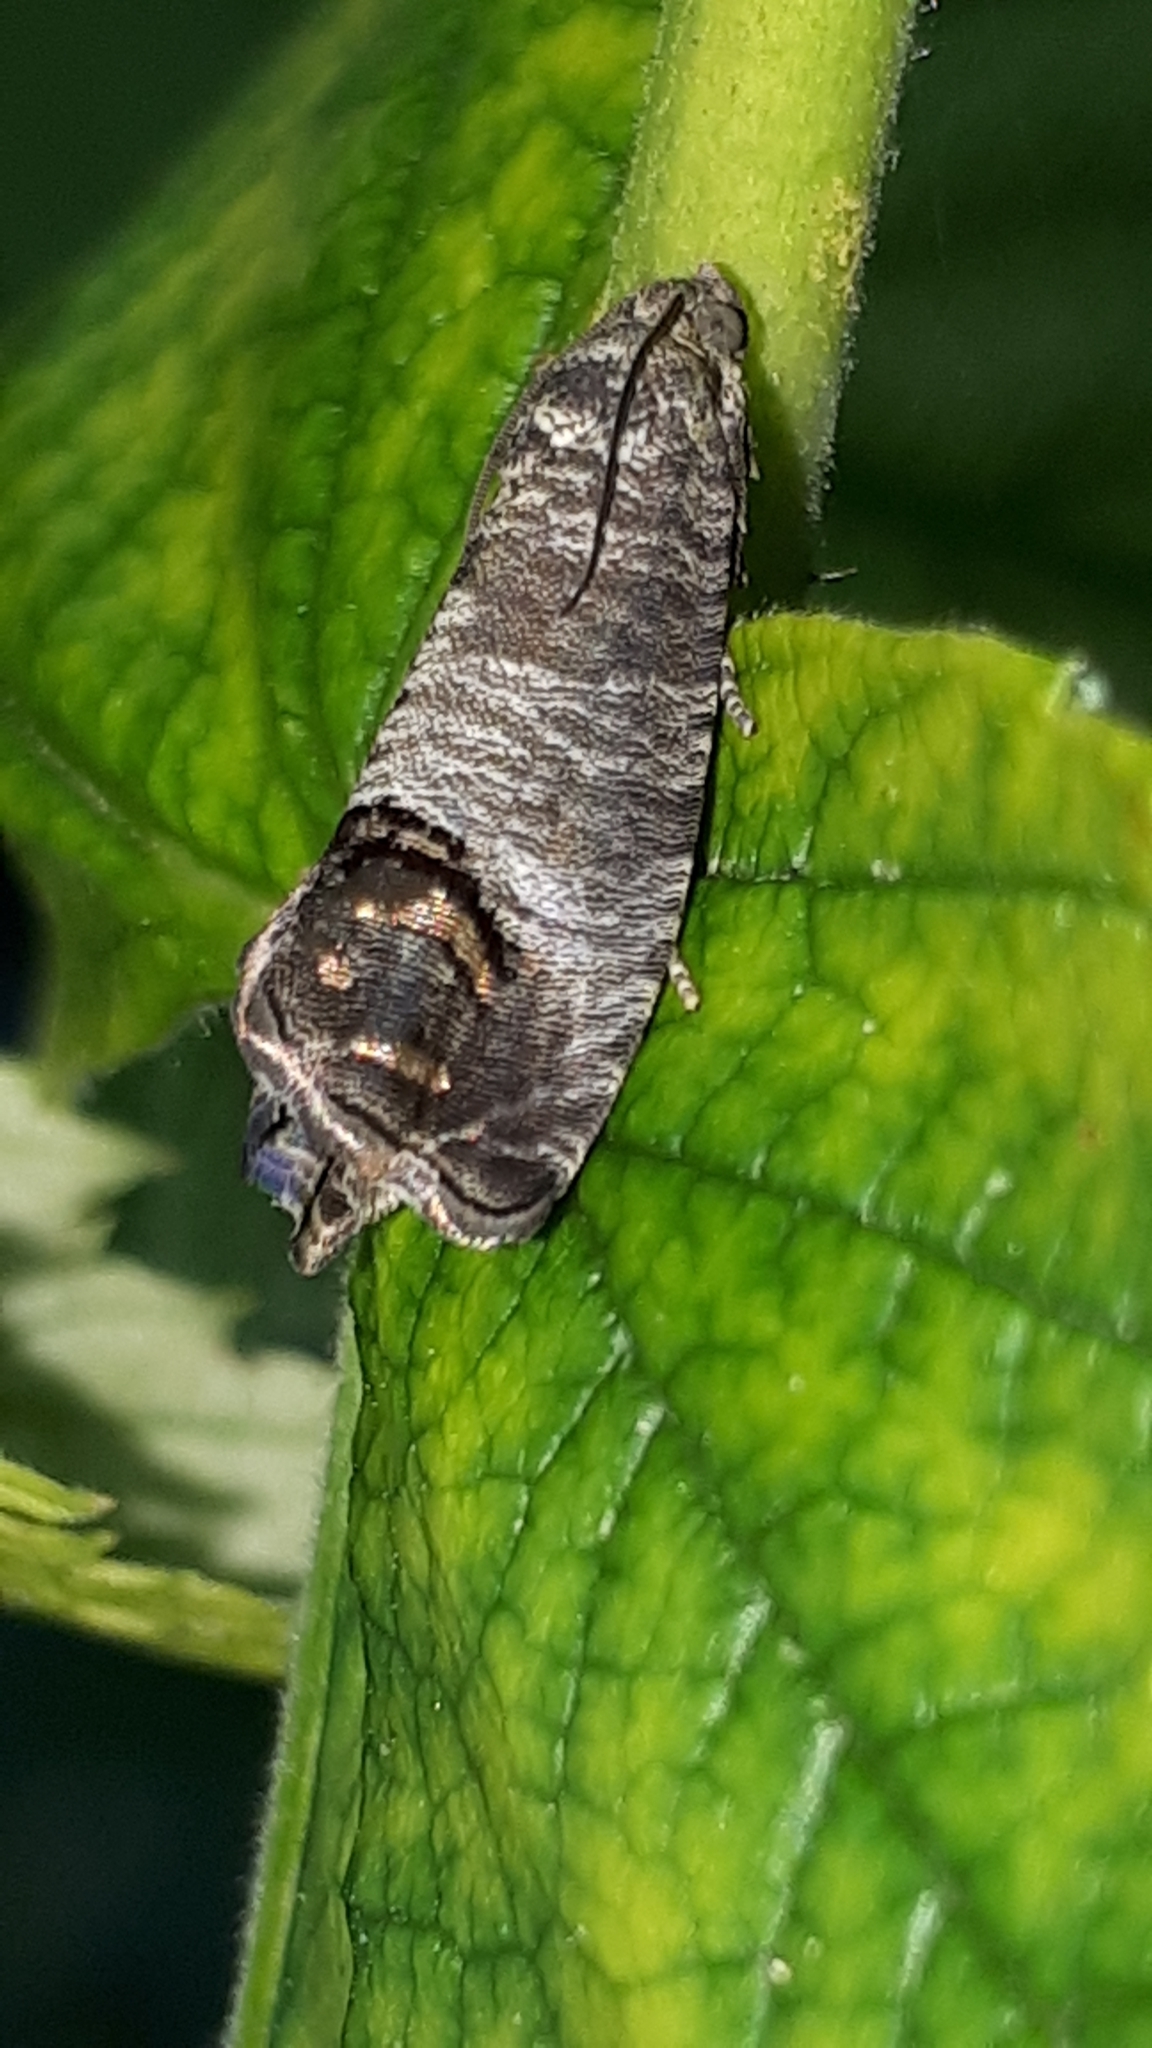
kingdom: Animalia
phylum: Arthropoda
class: Insecta
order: Lepidoptera
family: Tortricidae
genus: Cydia
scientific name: Cydia pomonella
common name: Codling moth
